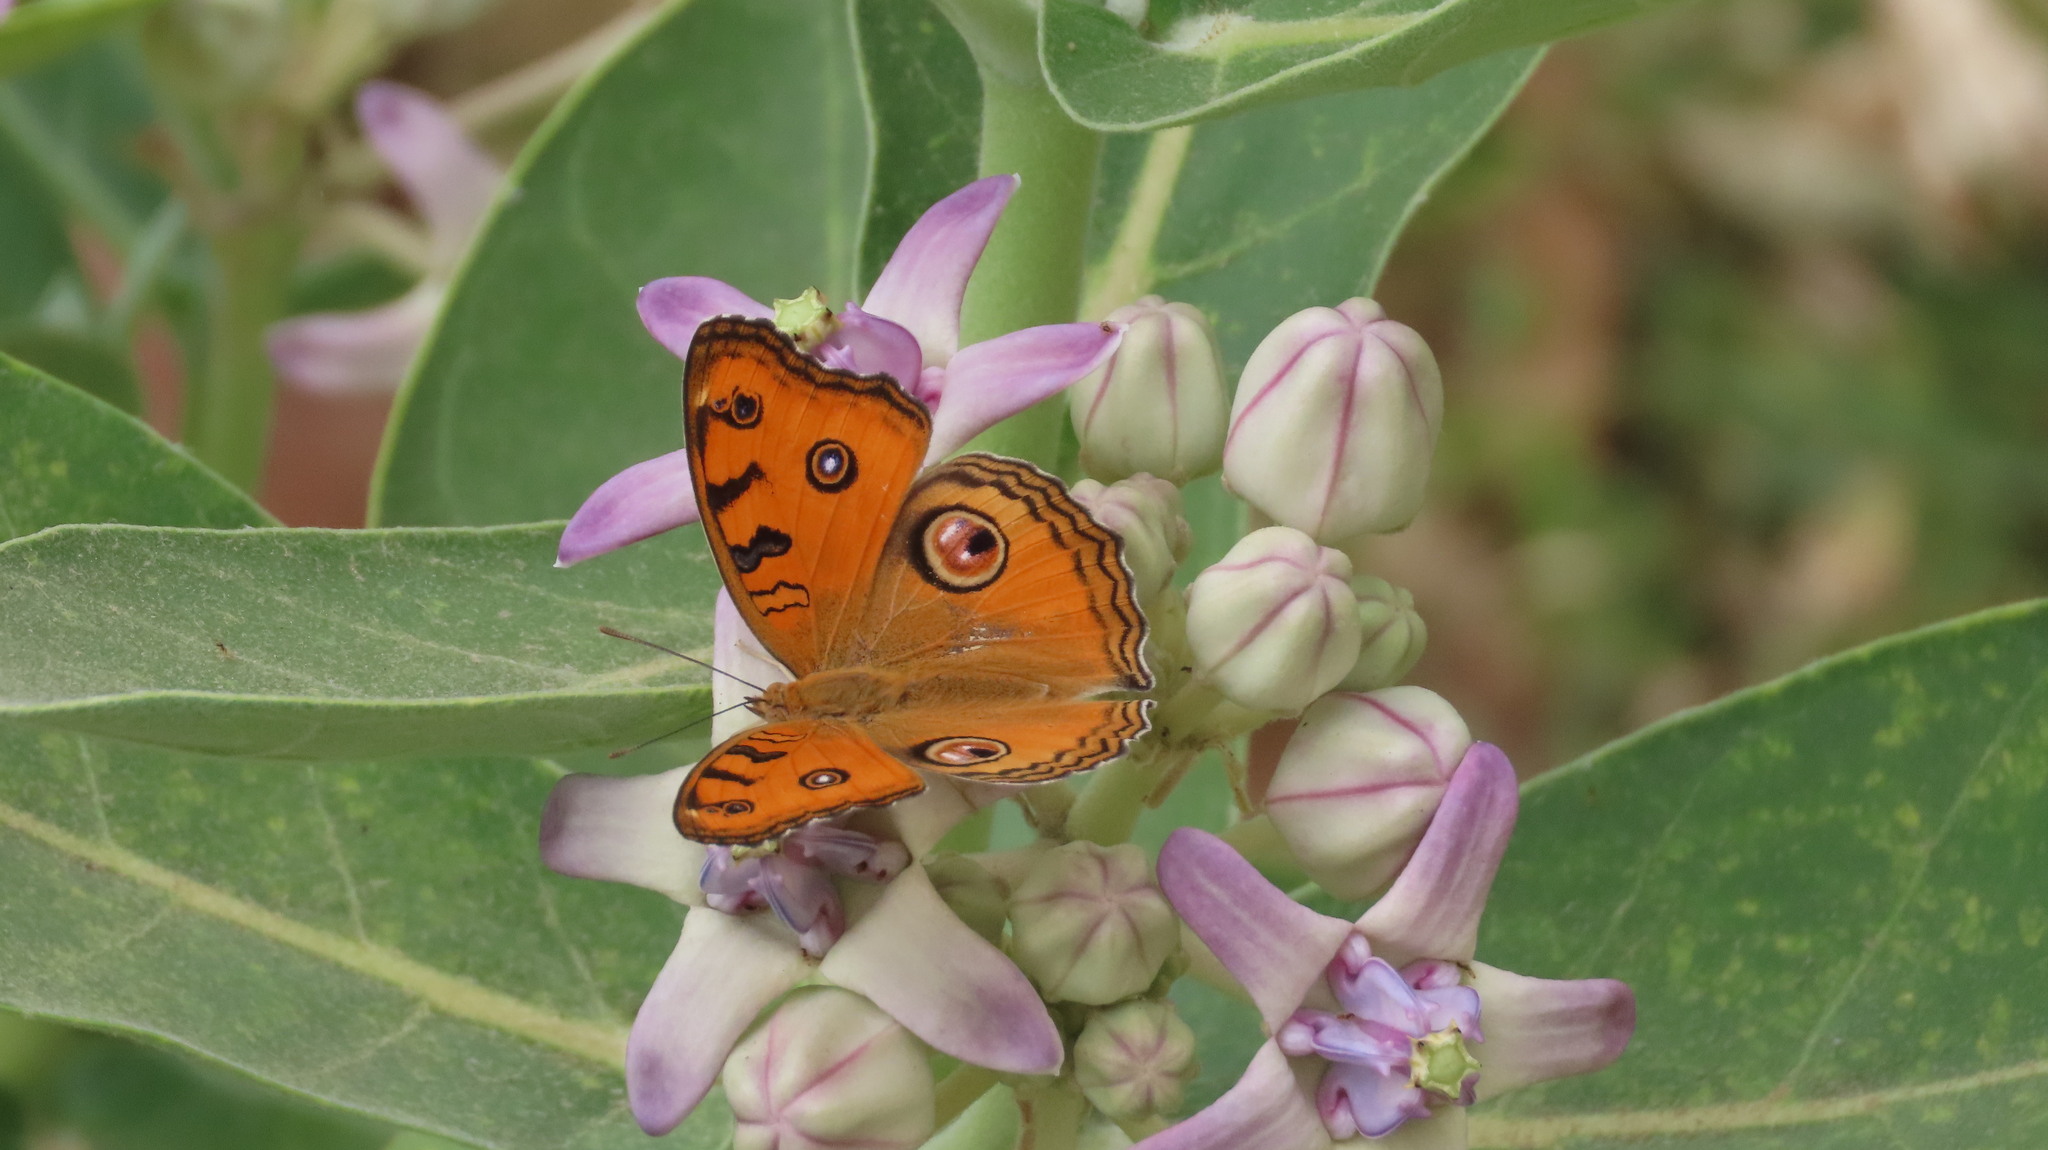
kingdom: Animalia
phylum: Arthropoda
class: Insecta
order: Lepidoptera
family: Nymphalidae
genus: Junonia
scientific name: Junonia almana
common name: Peacock pansy
